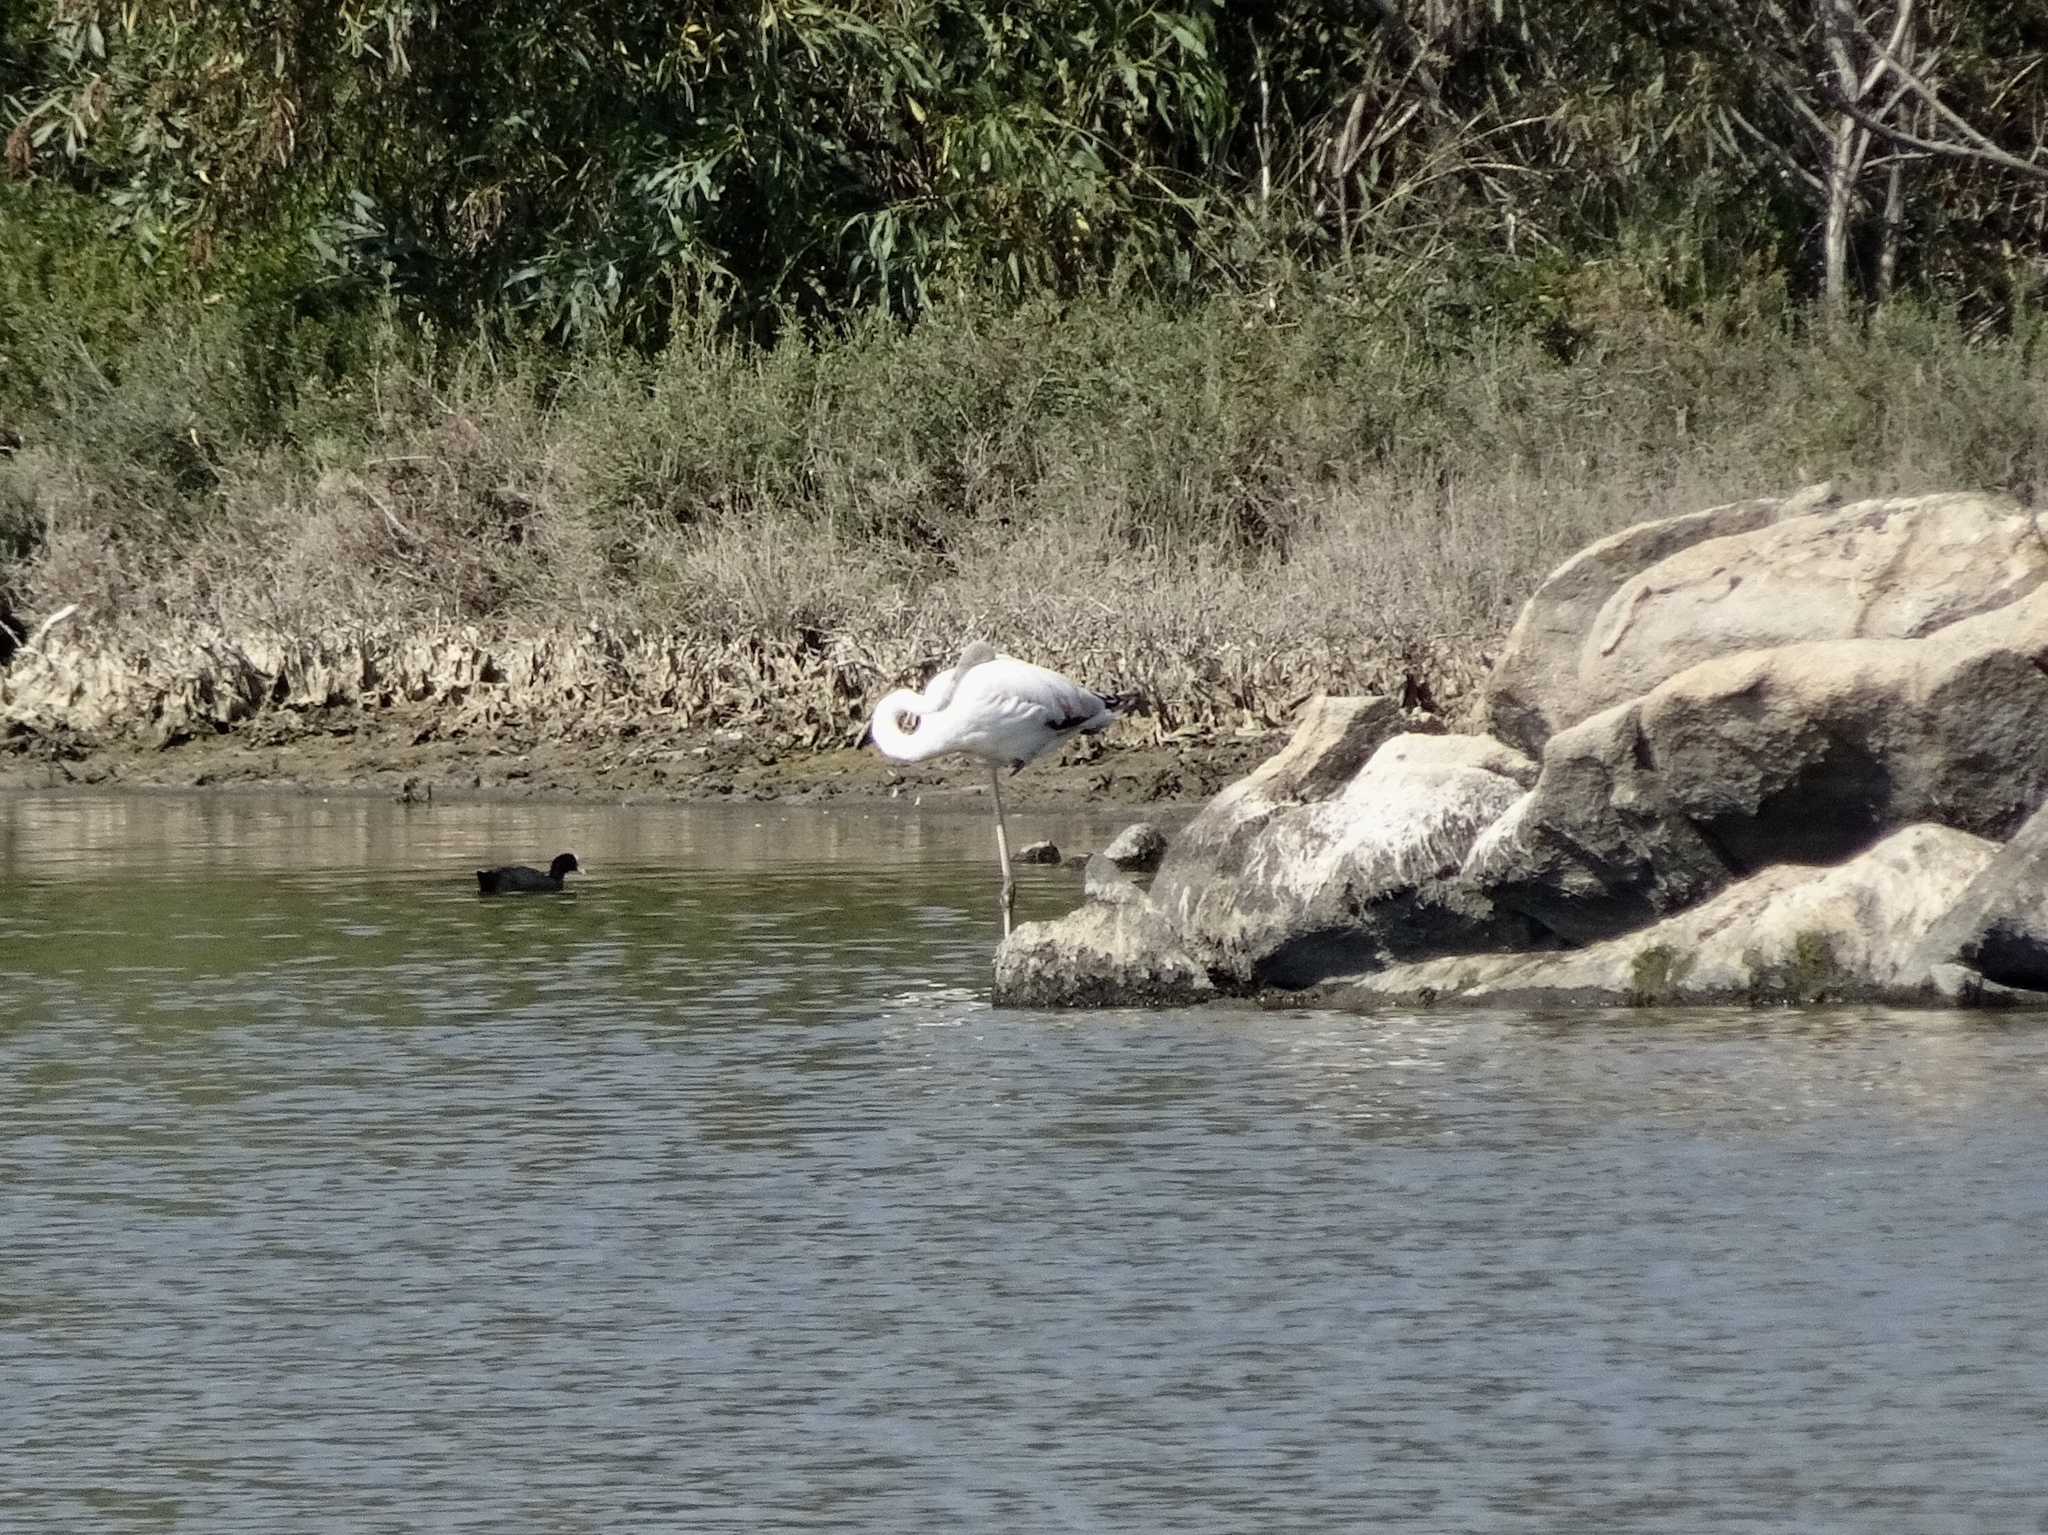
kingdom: Animalia
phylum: Chordata
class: Aves
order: Phoenicopteriformes
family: Phoenicopteridae
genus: Phoenicopterus
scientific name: Phoenicopterus roseus
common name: Greater flamingo
